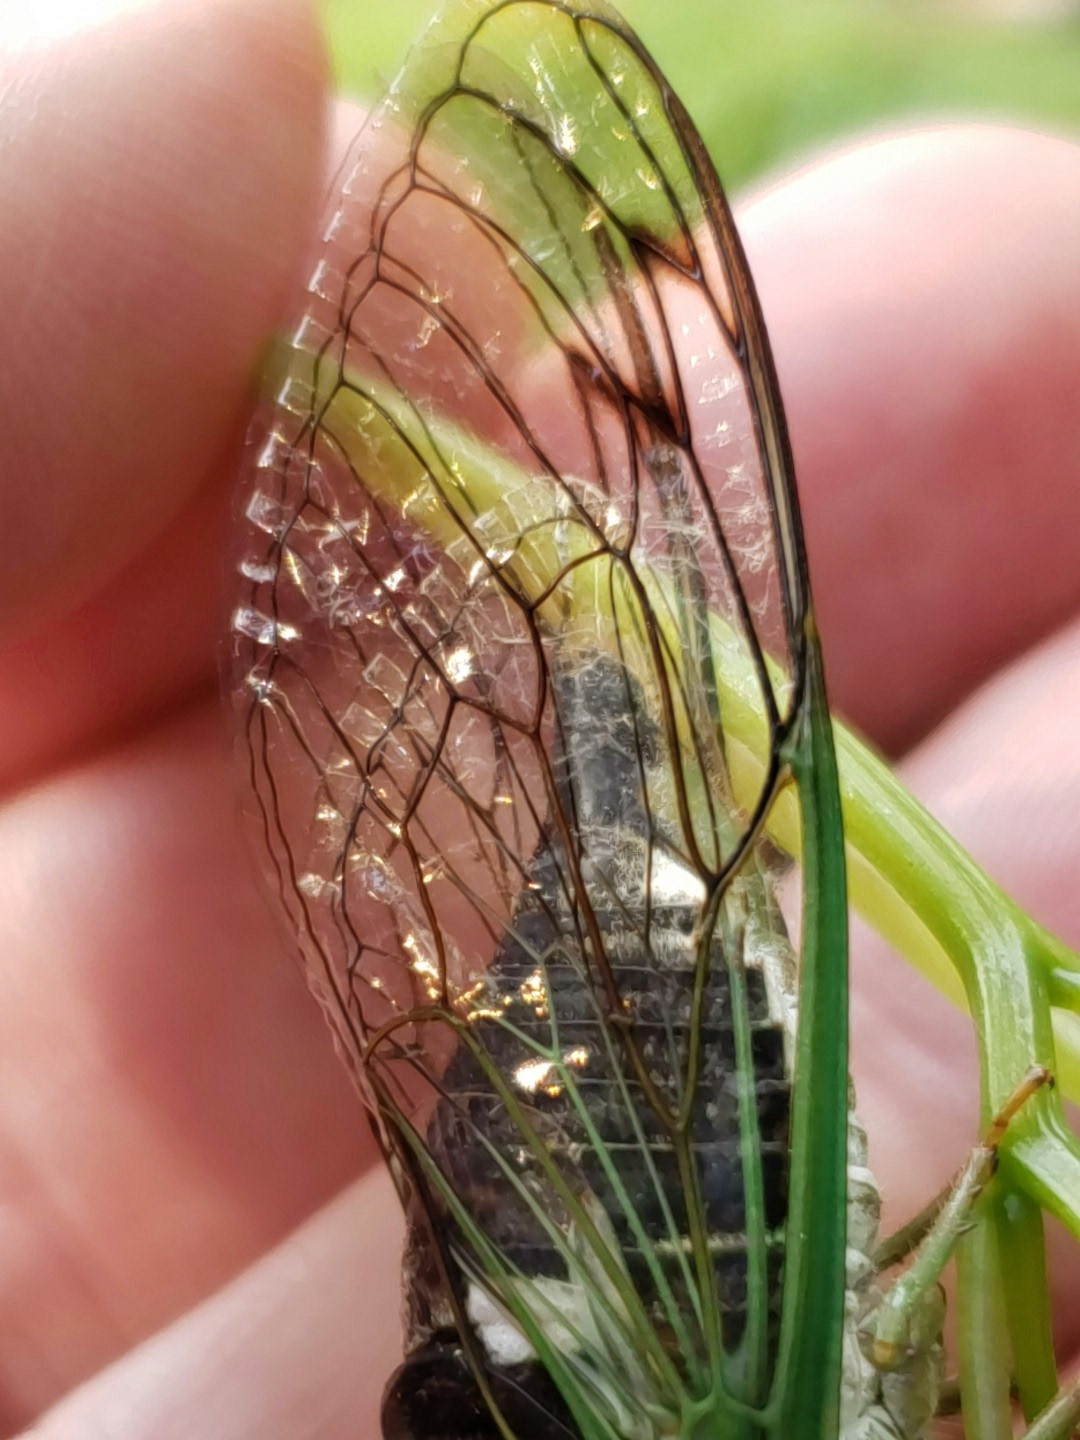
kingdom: Animalia
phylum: Arthropoda
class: Insecta
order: Hemiptera
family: Cicadidae
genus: Neotibicen
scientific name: Neotibicen tibicen
